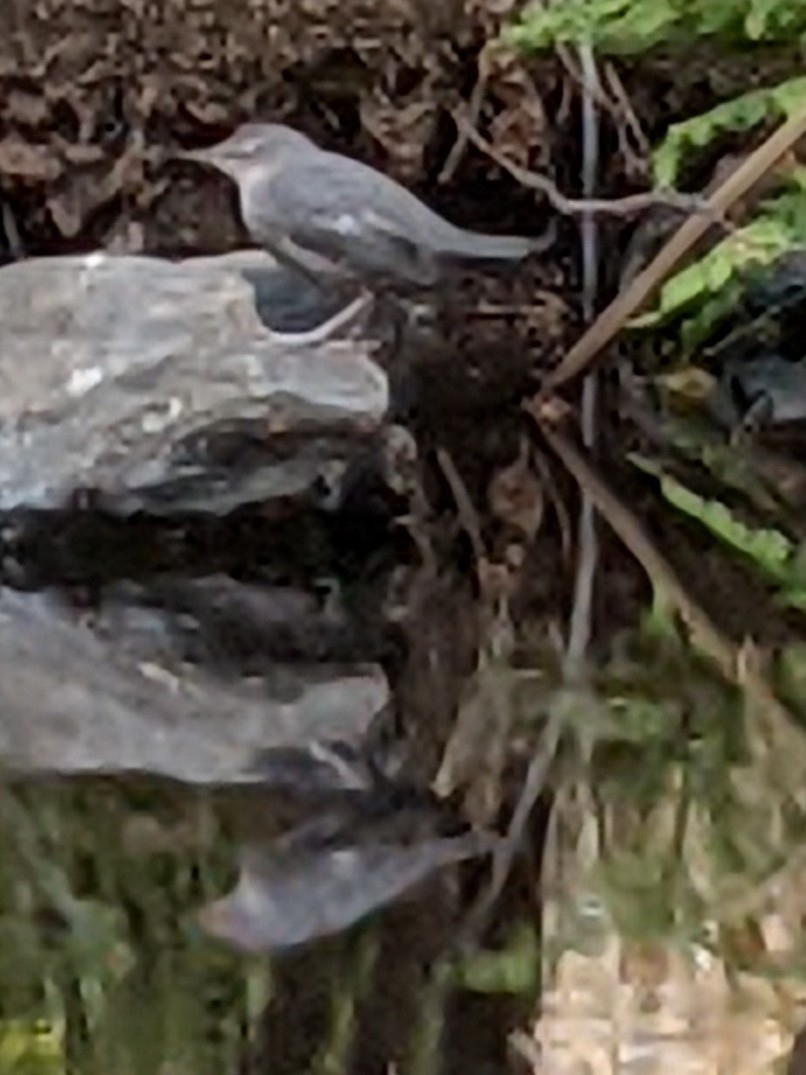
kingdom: Animalia
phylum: Chordata
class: Aves
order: Passeriformes
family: Cinclidae
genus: Cinclus
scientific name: Cinclus mexicanus
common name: American dipper
